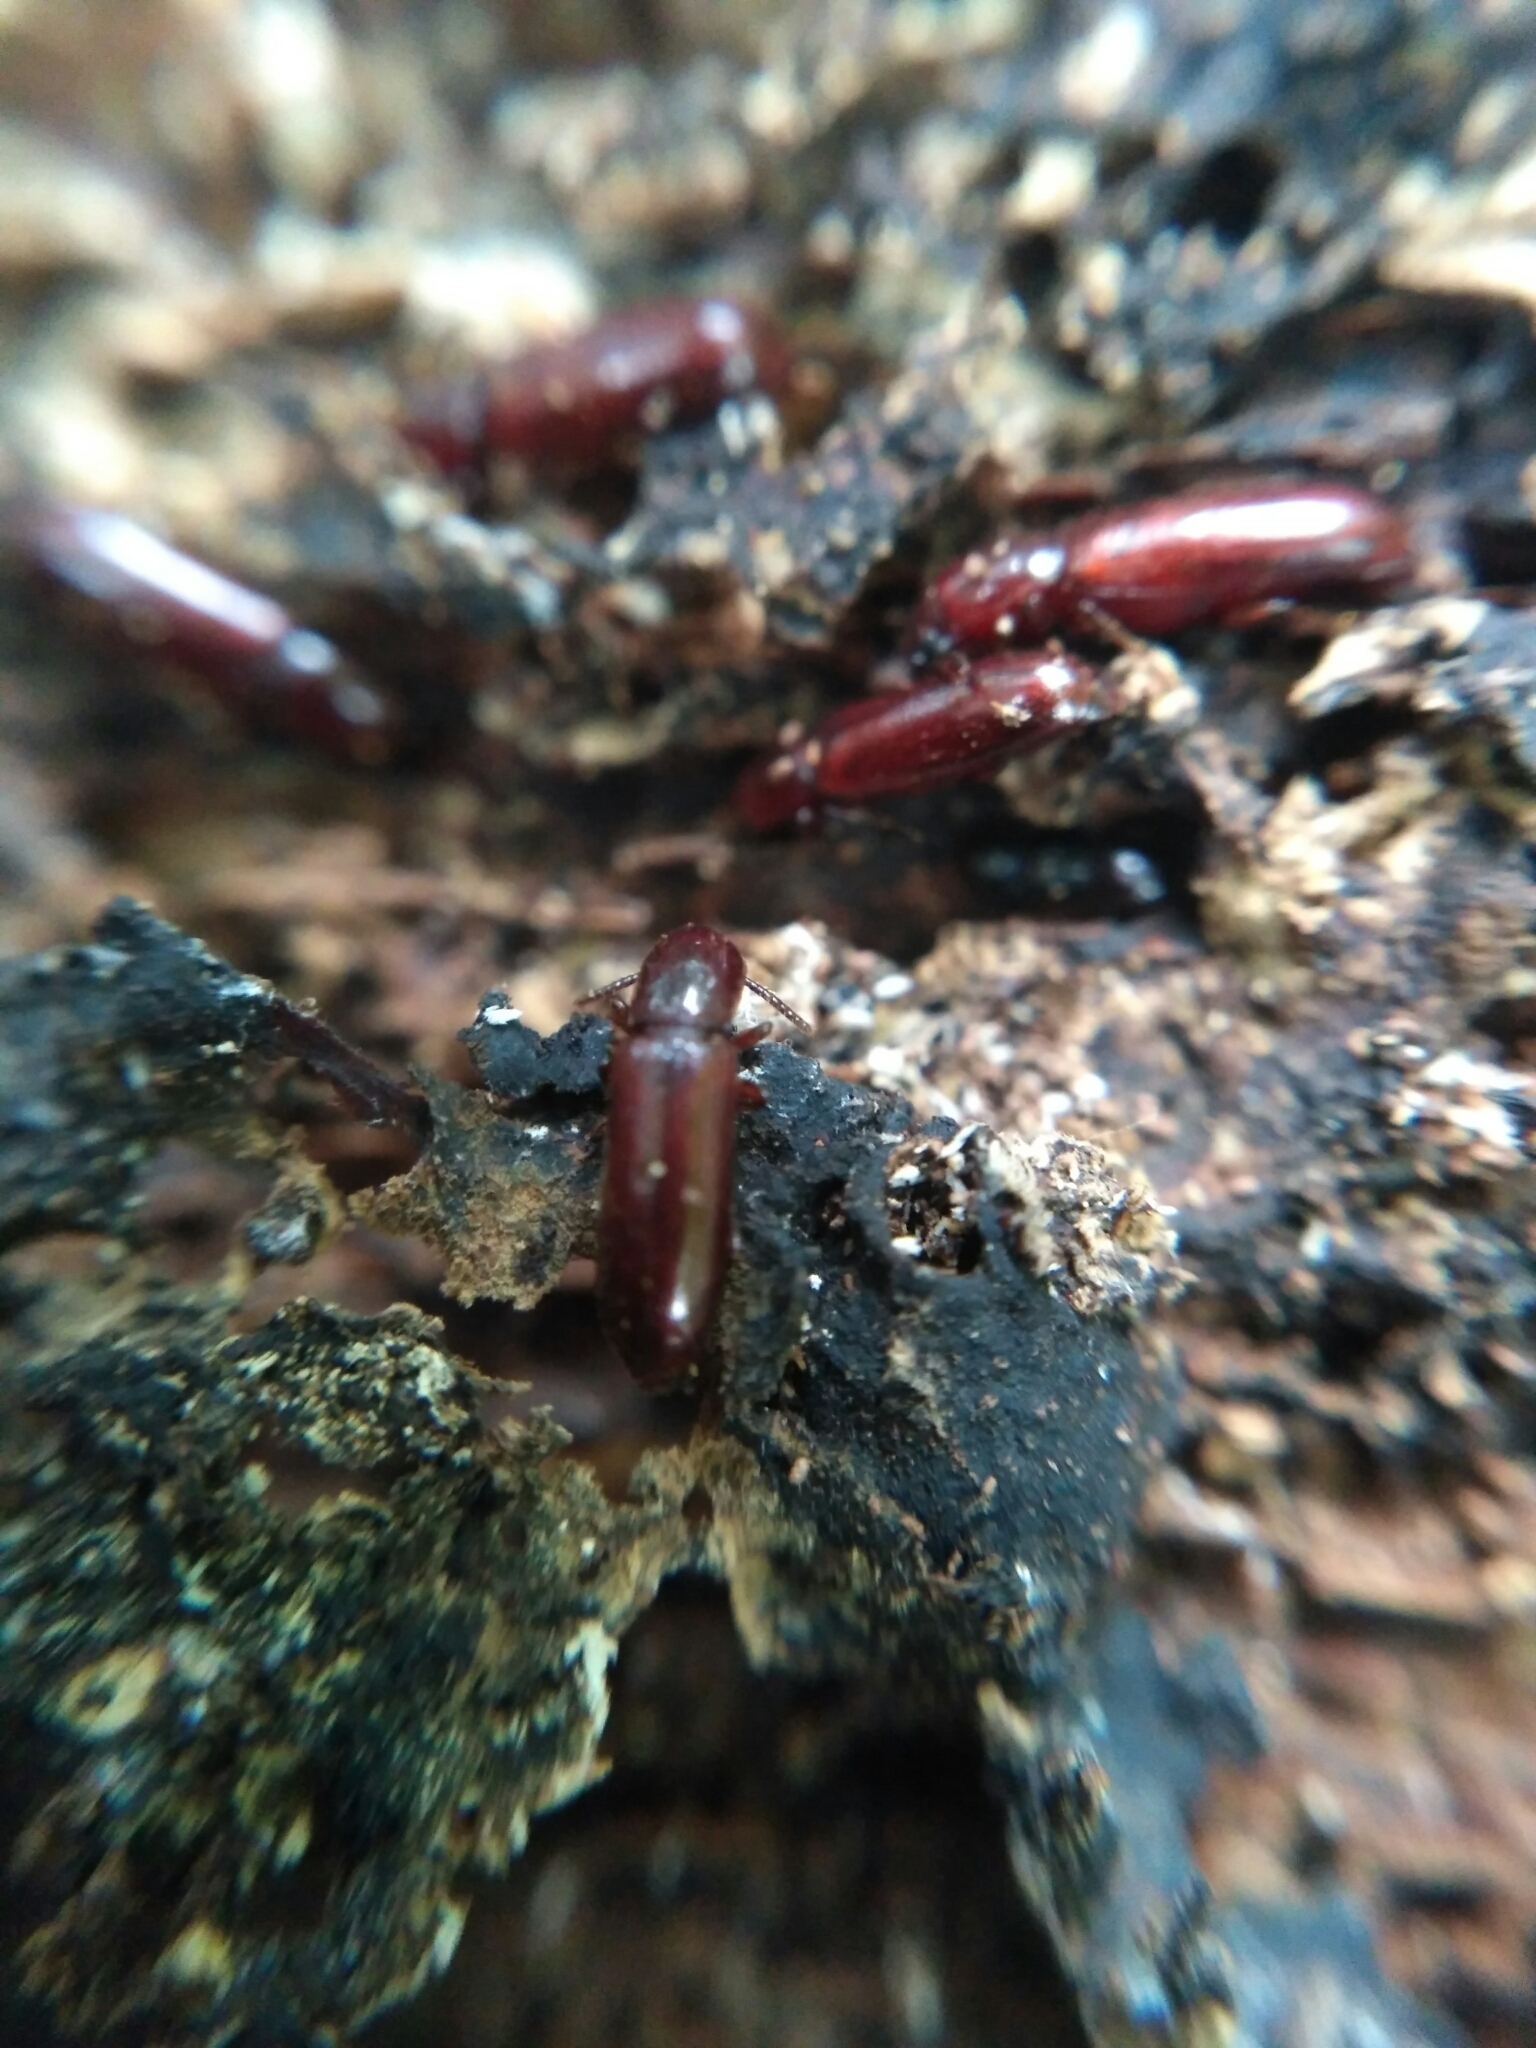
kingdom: Animalia
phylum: Arthropoda
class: Insecta
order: Coleoptera
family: Tenebrionidae
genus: Corticeus
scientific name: Corticeus unicolor
